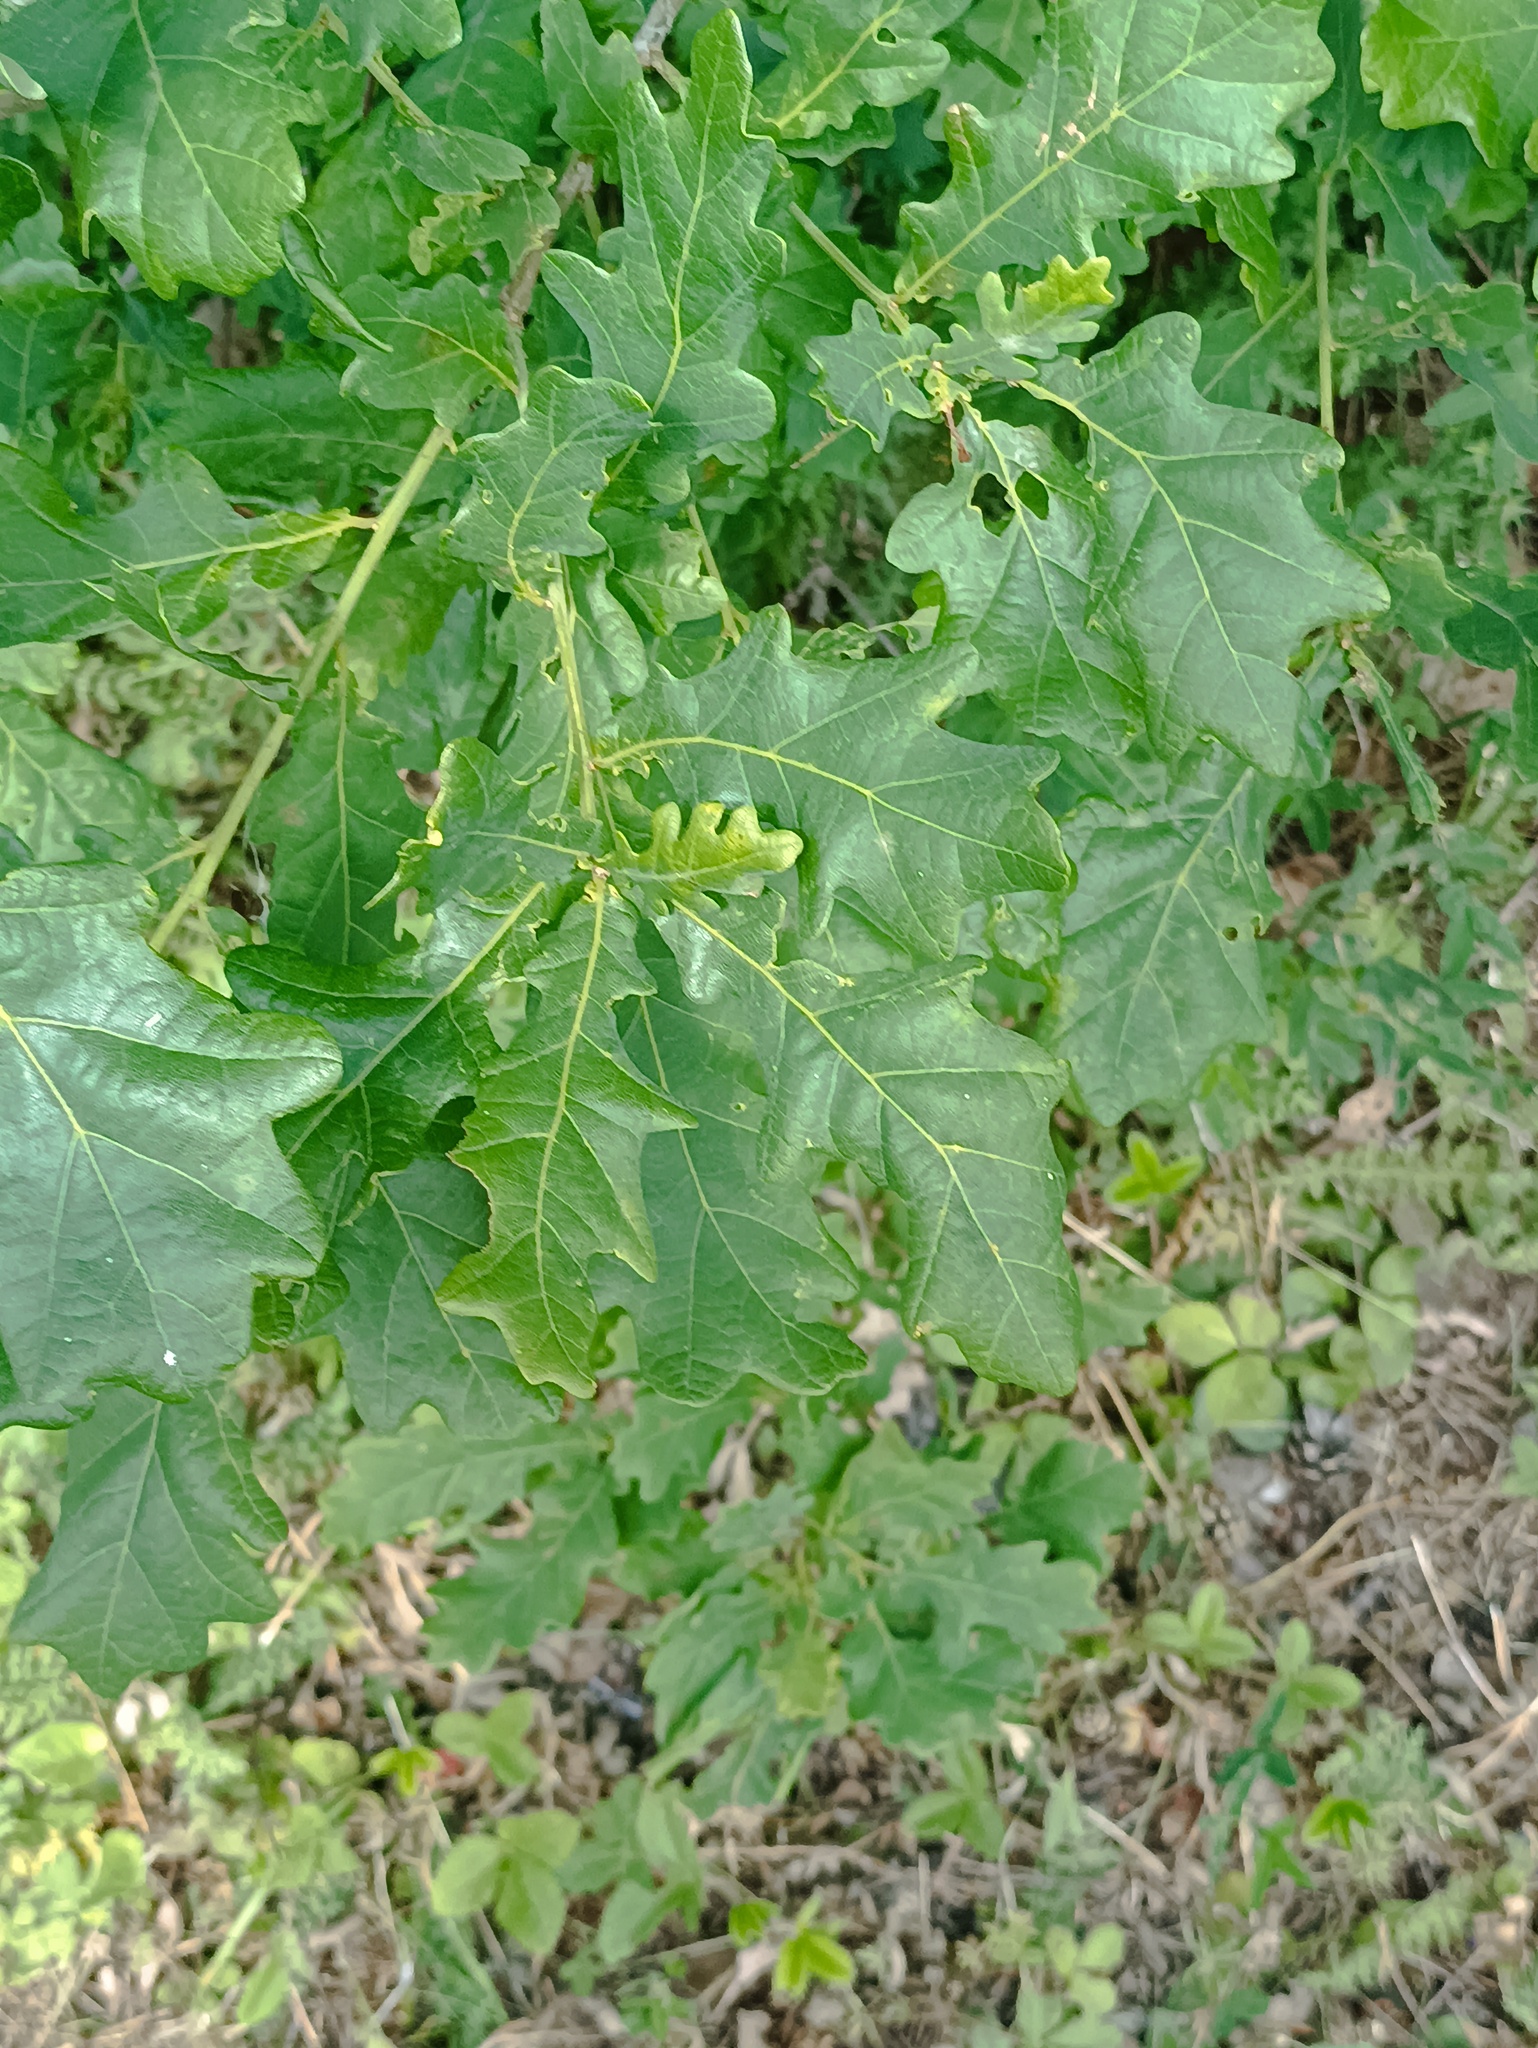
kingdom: Plantae
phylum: Tracheophyta
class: Magnoliopsida
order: Fagales
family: Fagaceae
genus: Quercus
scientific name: Quercus robur
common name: Pedunculate oak
